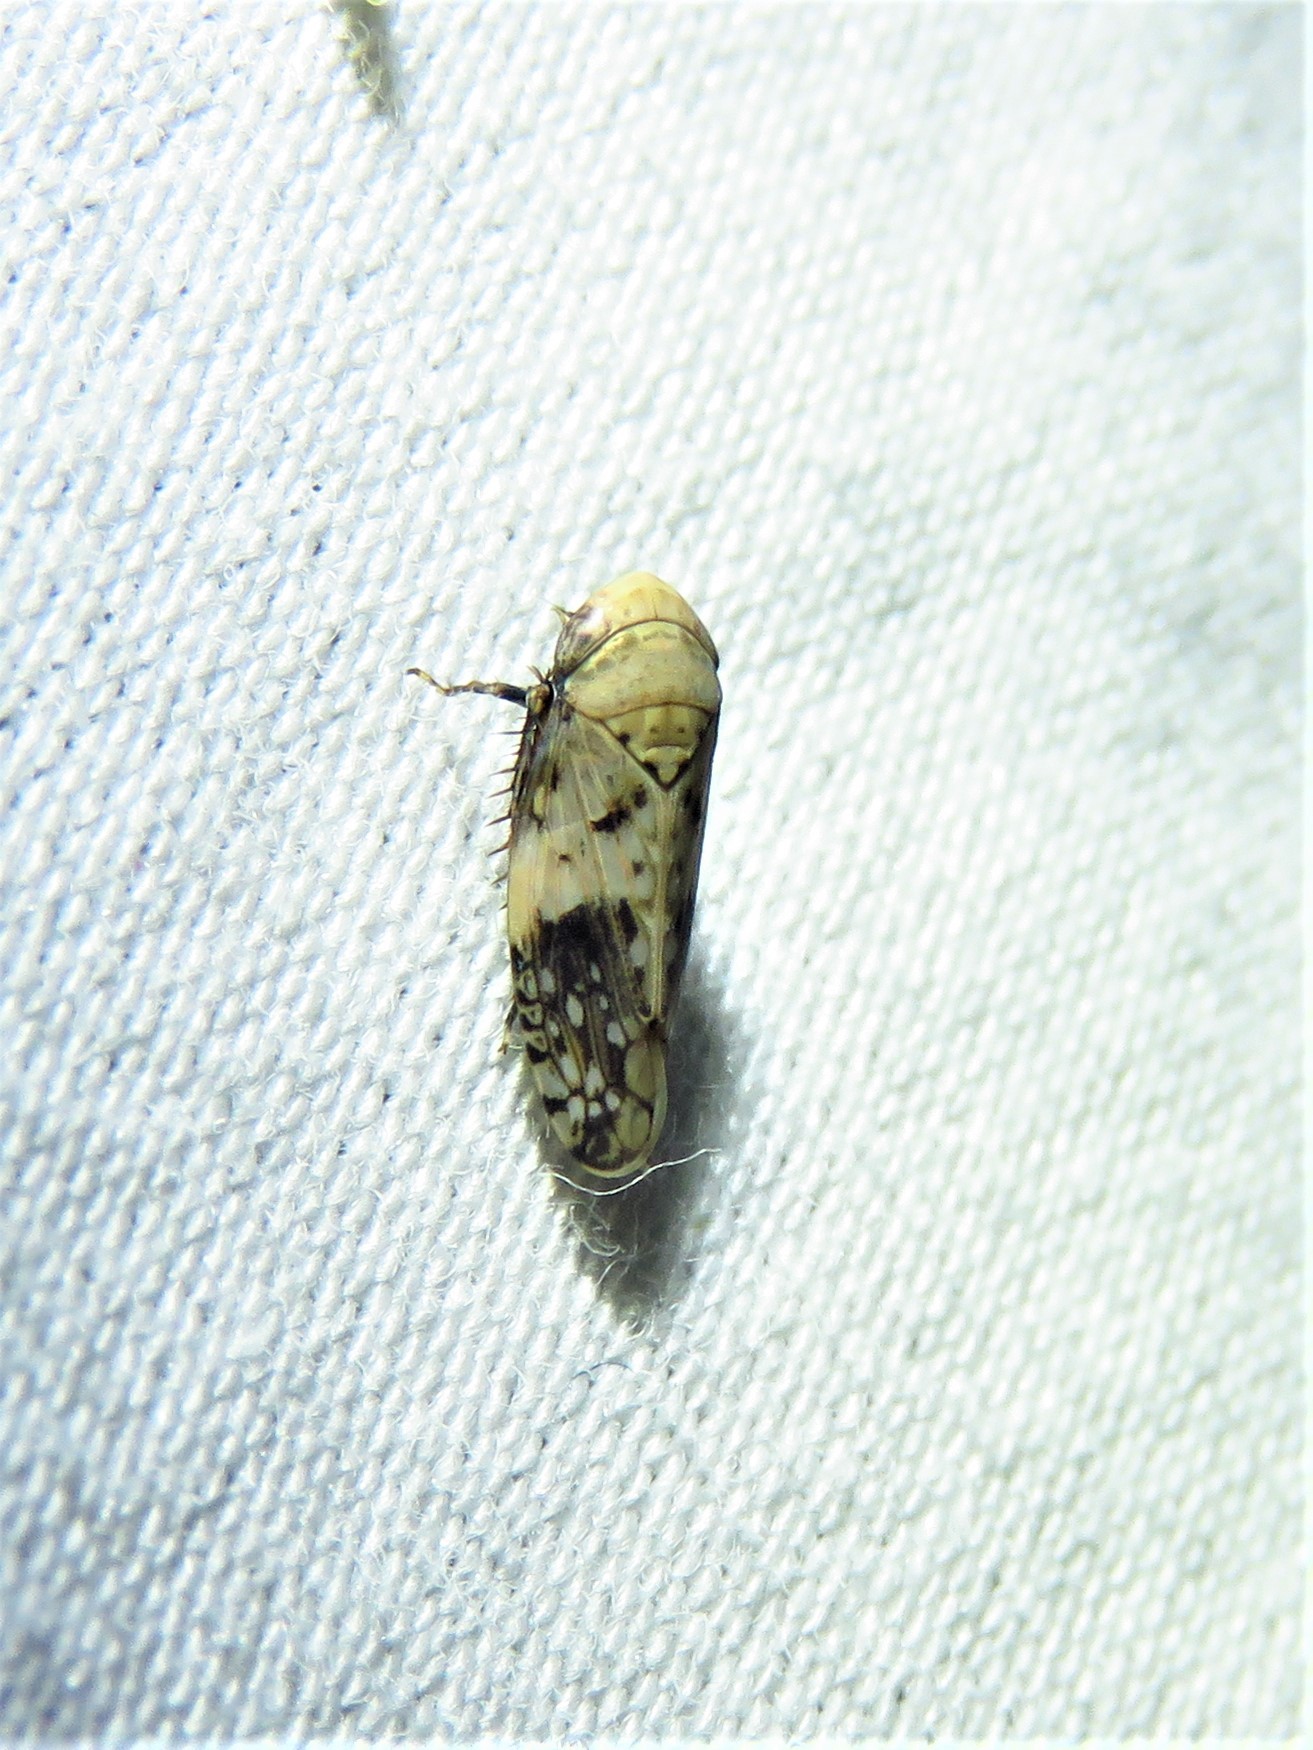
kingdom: Animalia
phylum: Arthropoda
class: Insecta
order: Hemiptera
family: Cicadellidae
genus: Menosoma
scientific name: Menosoma cinctum
